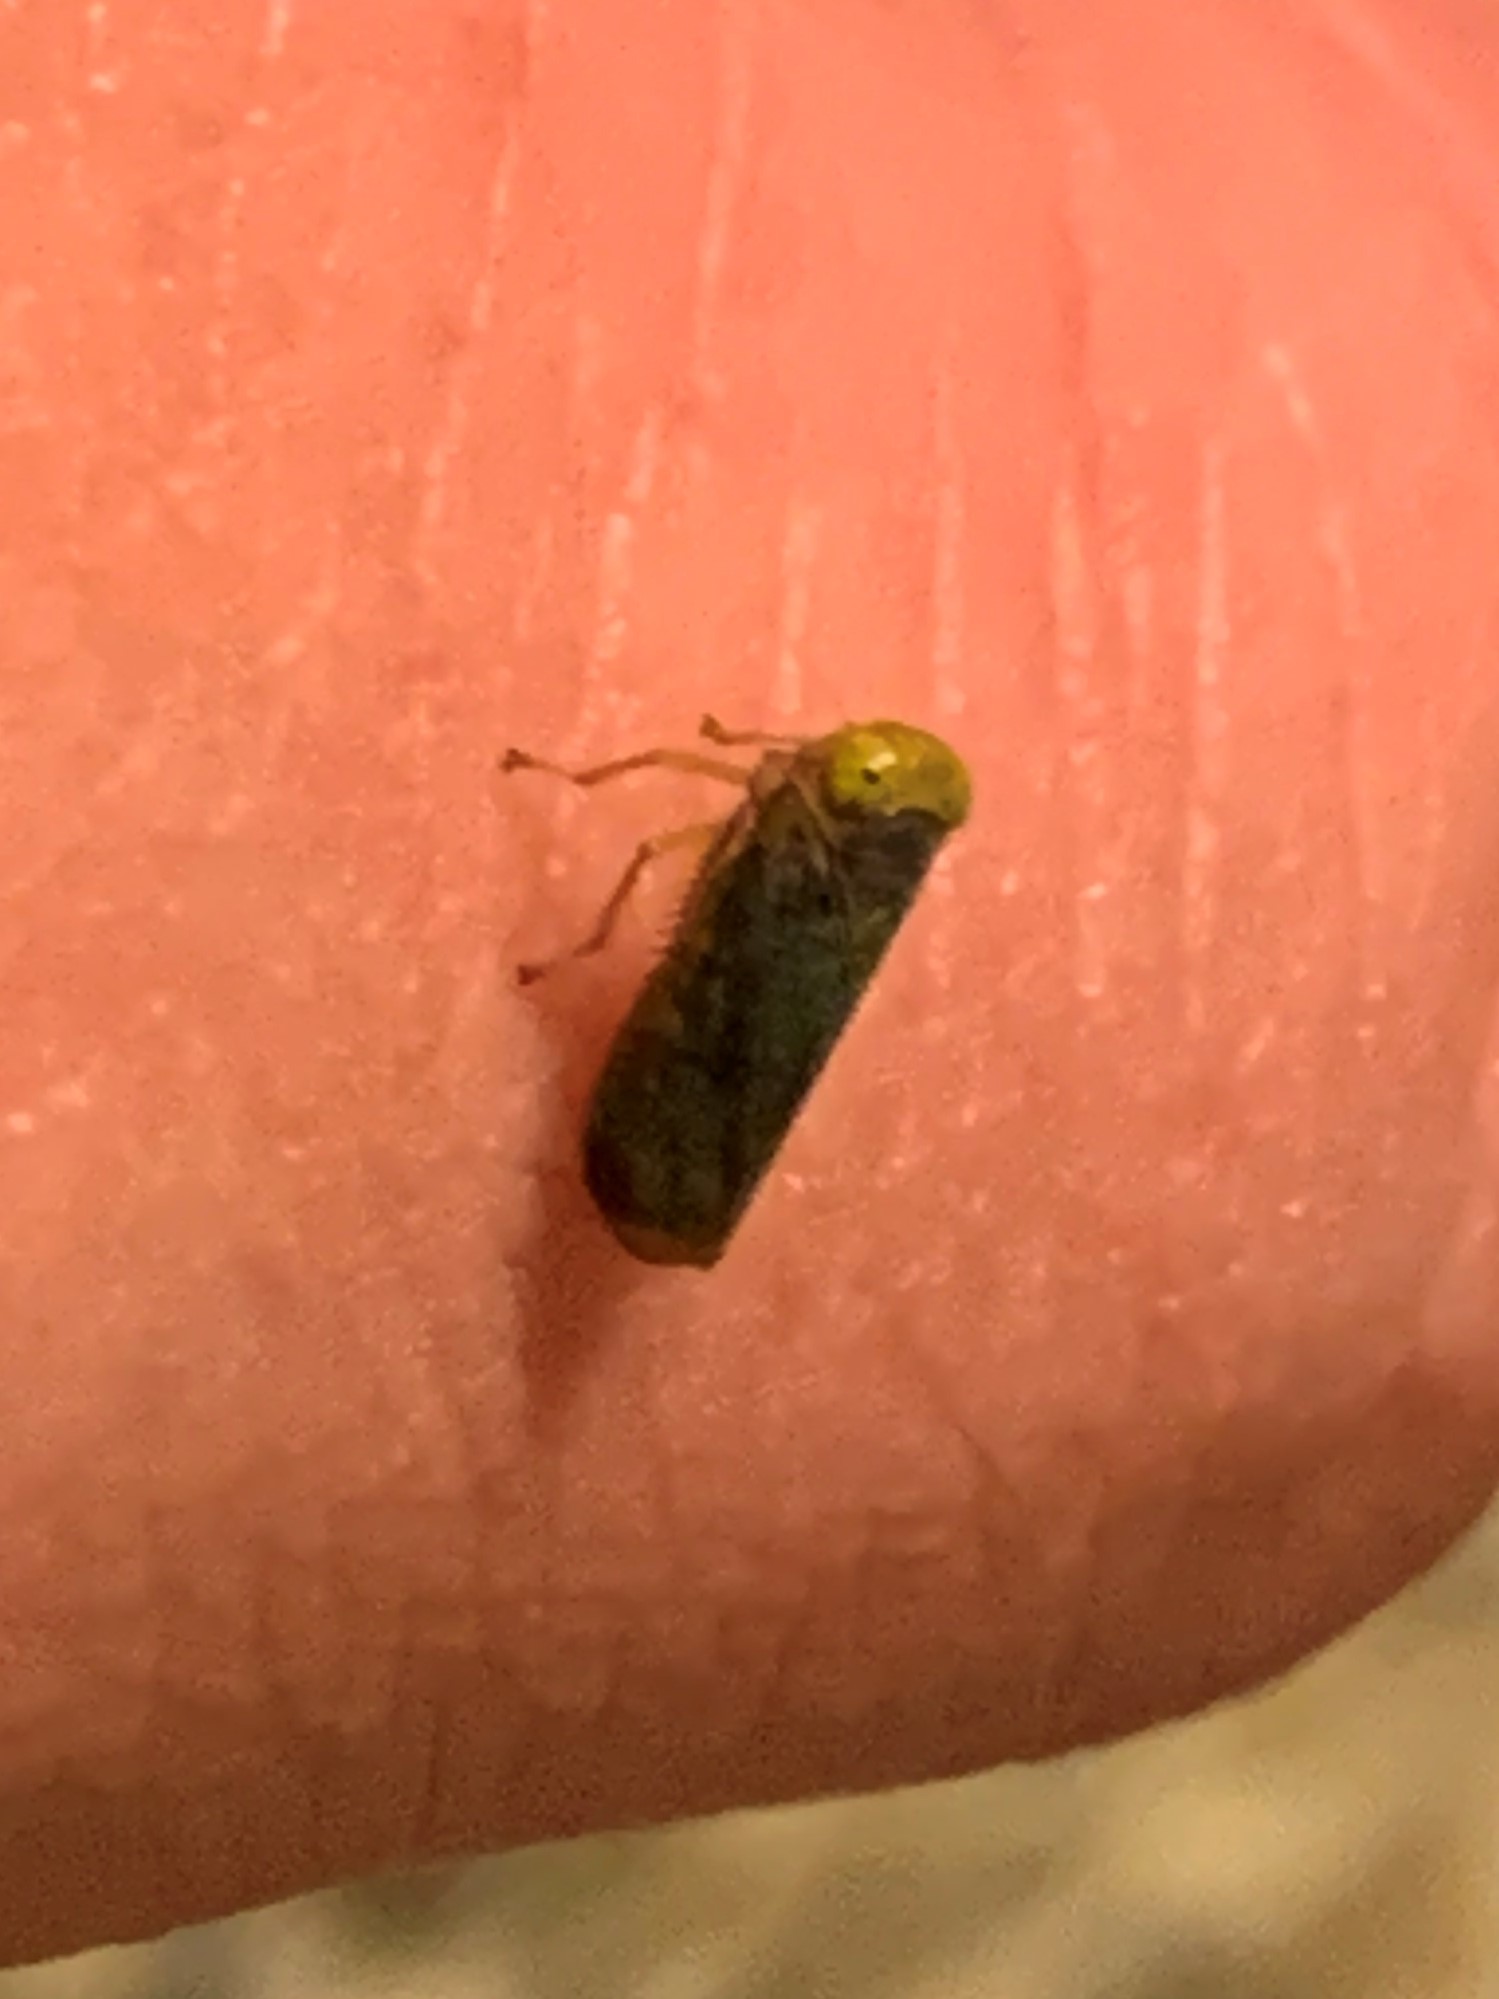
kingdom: Animalia
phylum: Arthropoda
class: Insecta
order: Hemiptera
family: Cicadellidae
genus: Jikradia
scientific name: Jikradia olitoria
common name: Coppery leafhopper
